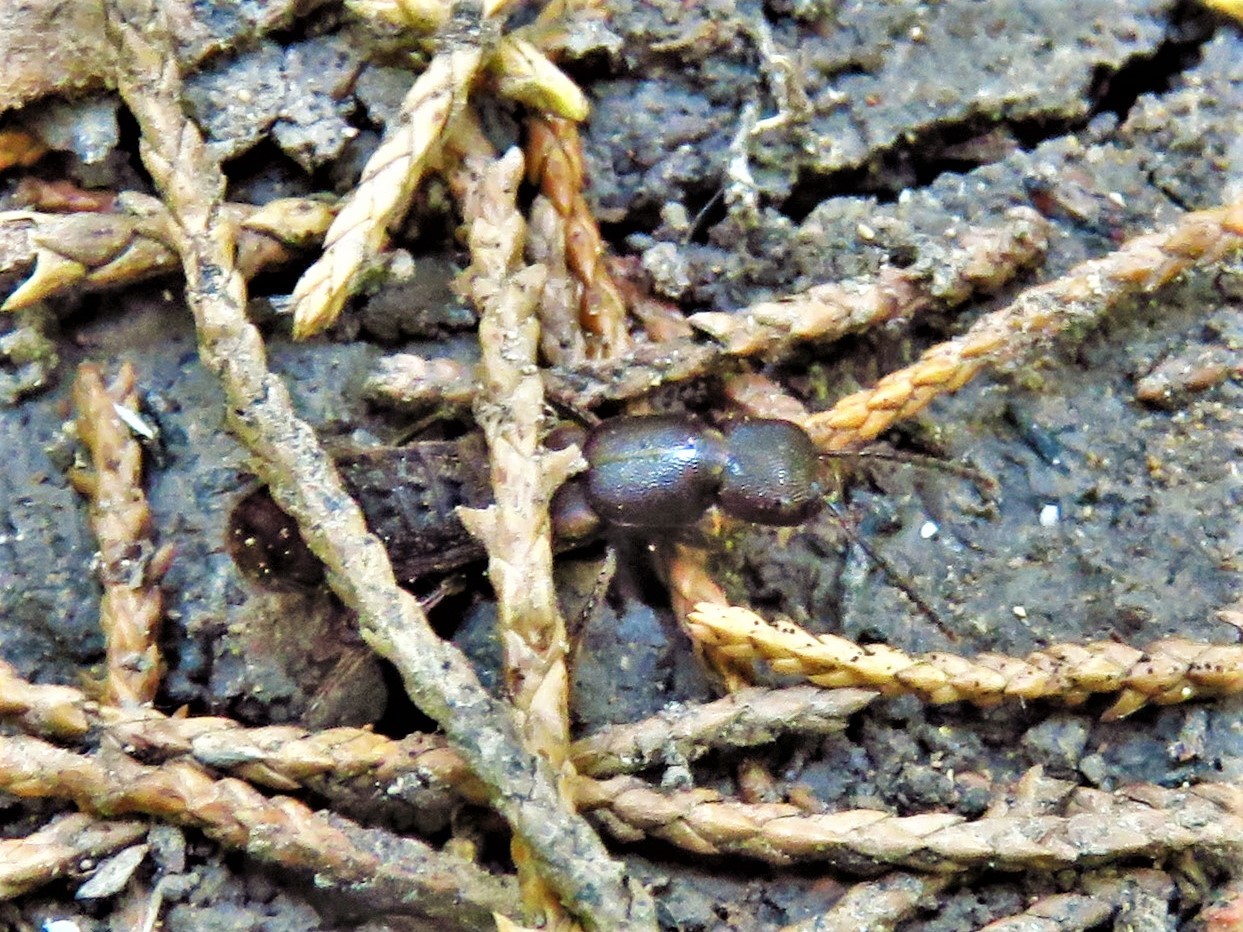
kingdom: Animalia
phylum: Arthropoda
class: Insecta
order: Coleoptera
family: Staphylinidae
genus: Platydracus
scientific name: Platydracus maculosus
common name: Brown rove beetle
